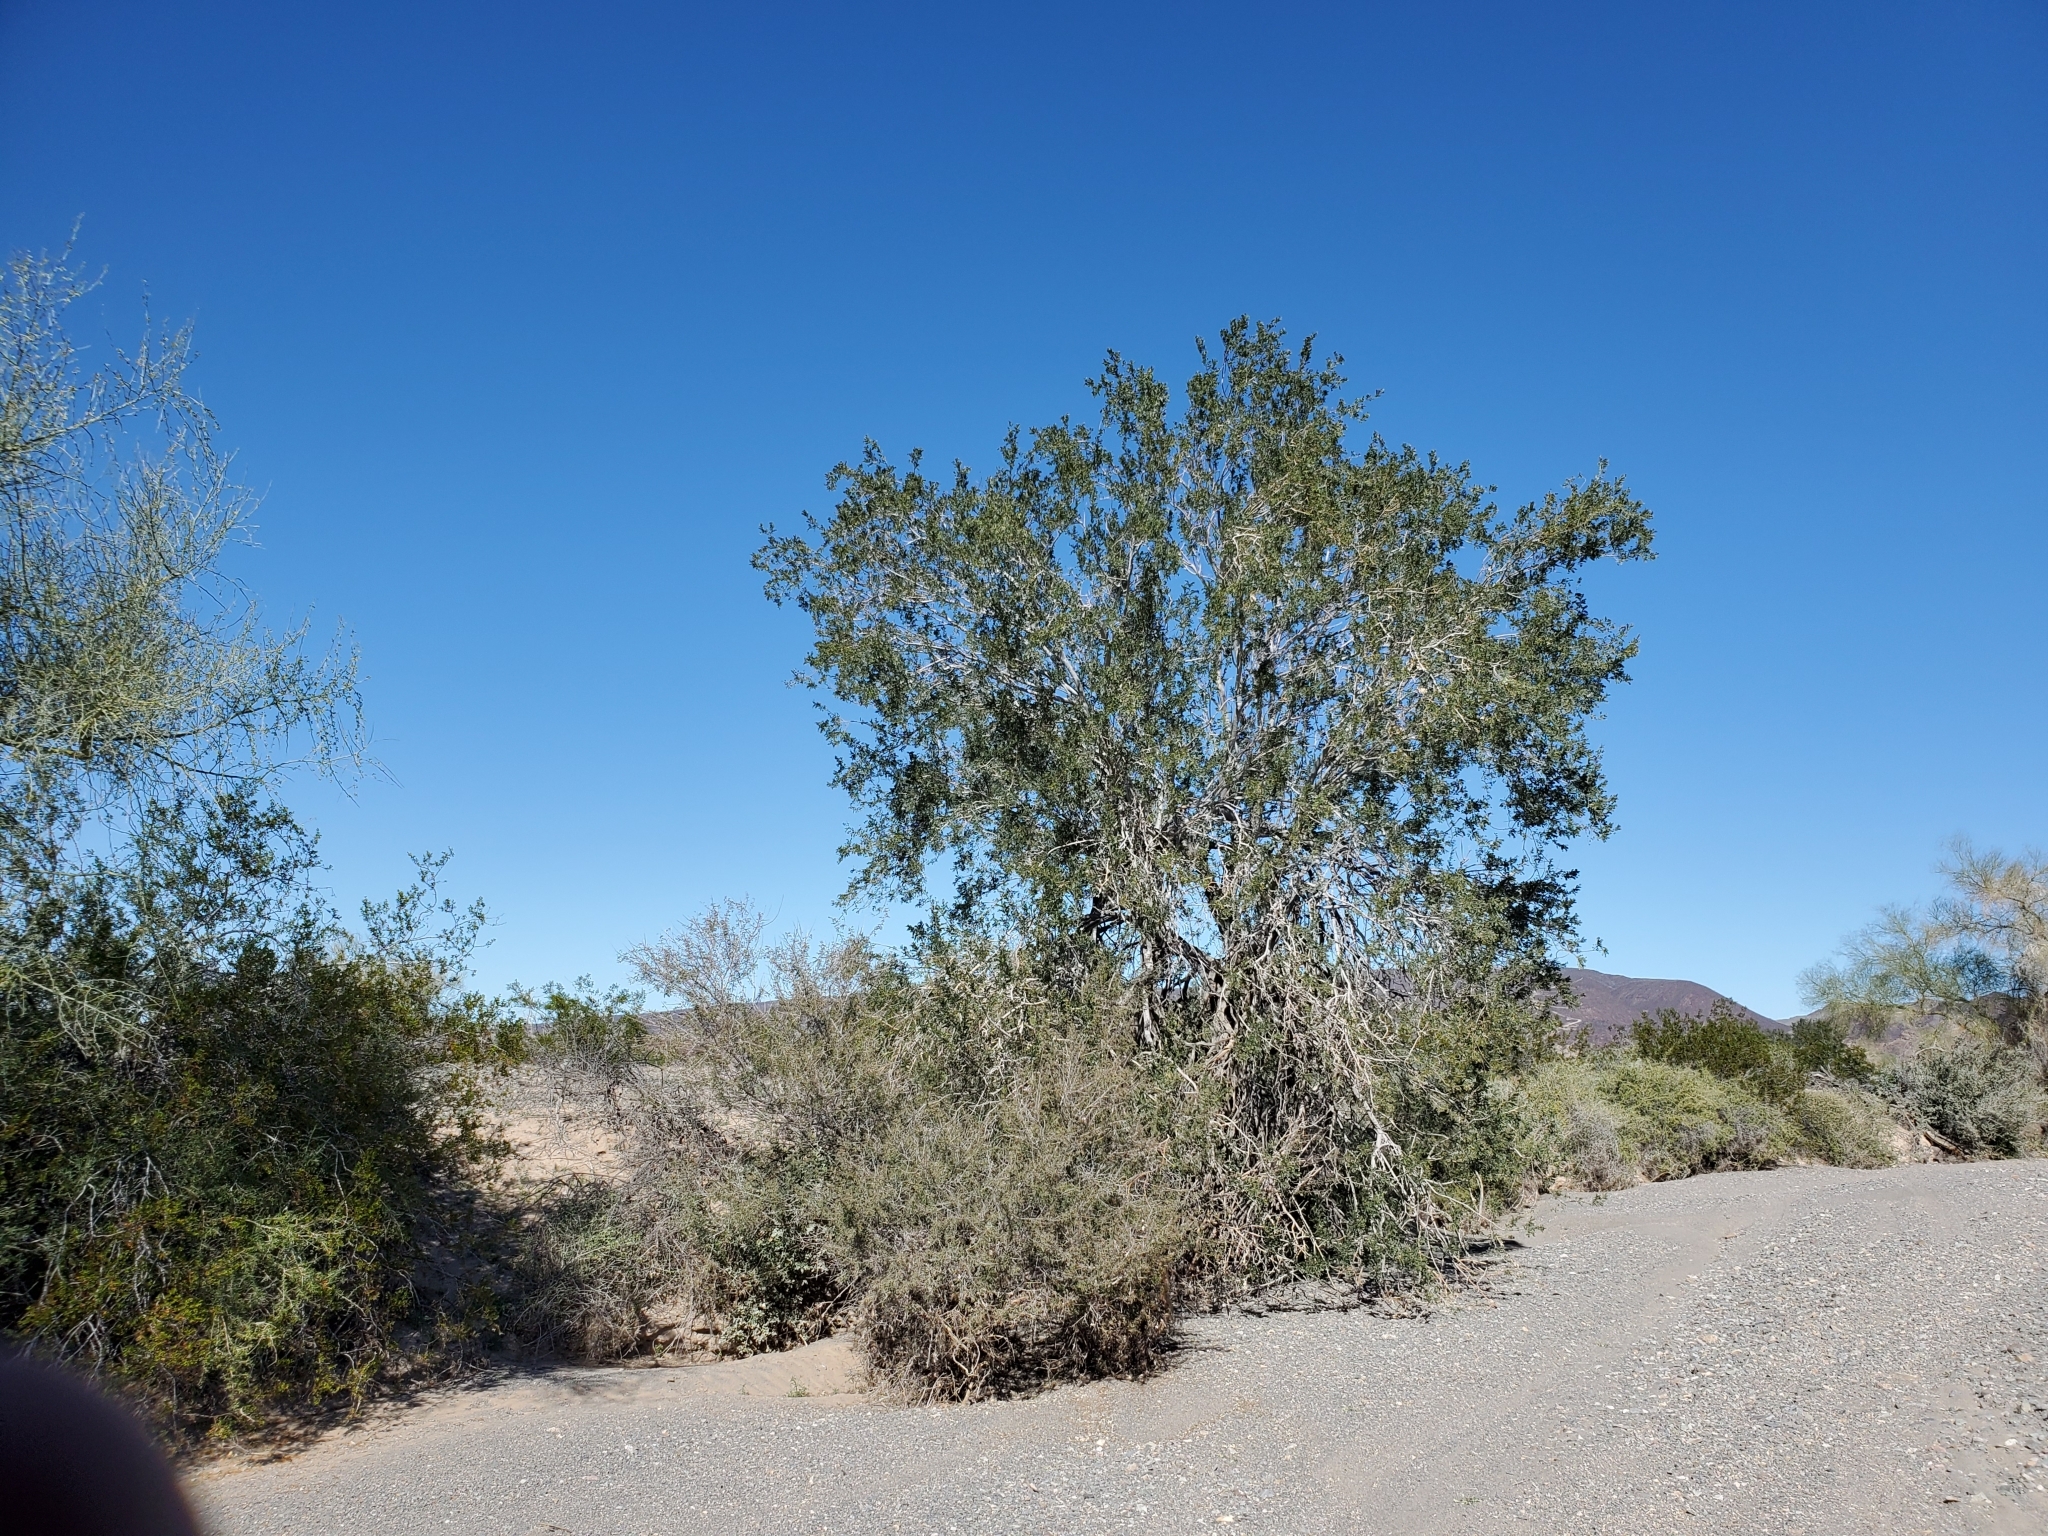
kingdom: Plantae
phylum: Tracheophyta
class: Magnoliopsida
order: Fabales
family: Fabaceae
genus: Olneya
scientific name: Olneya tesota
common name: Desert ironwood
